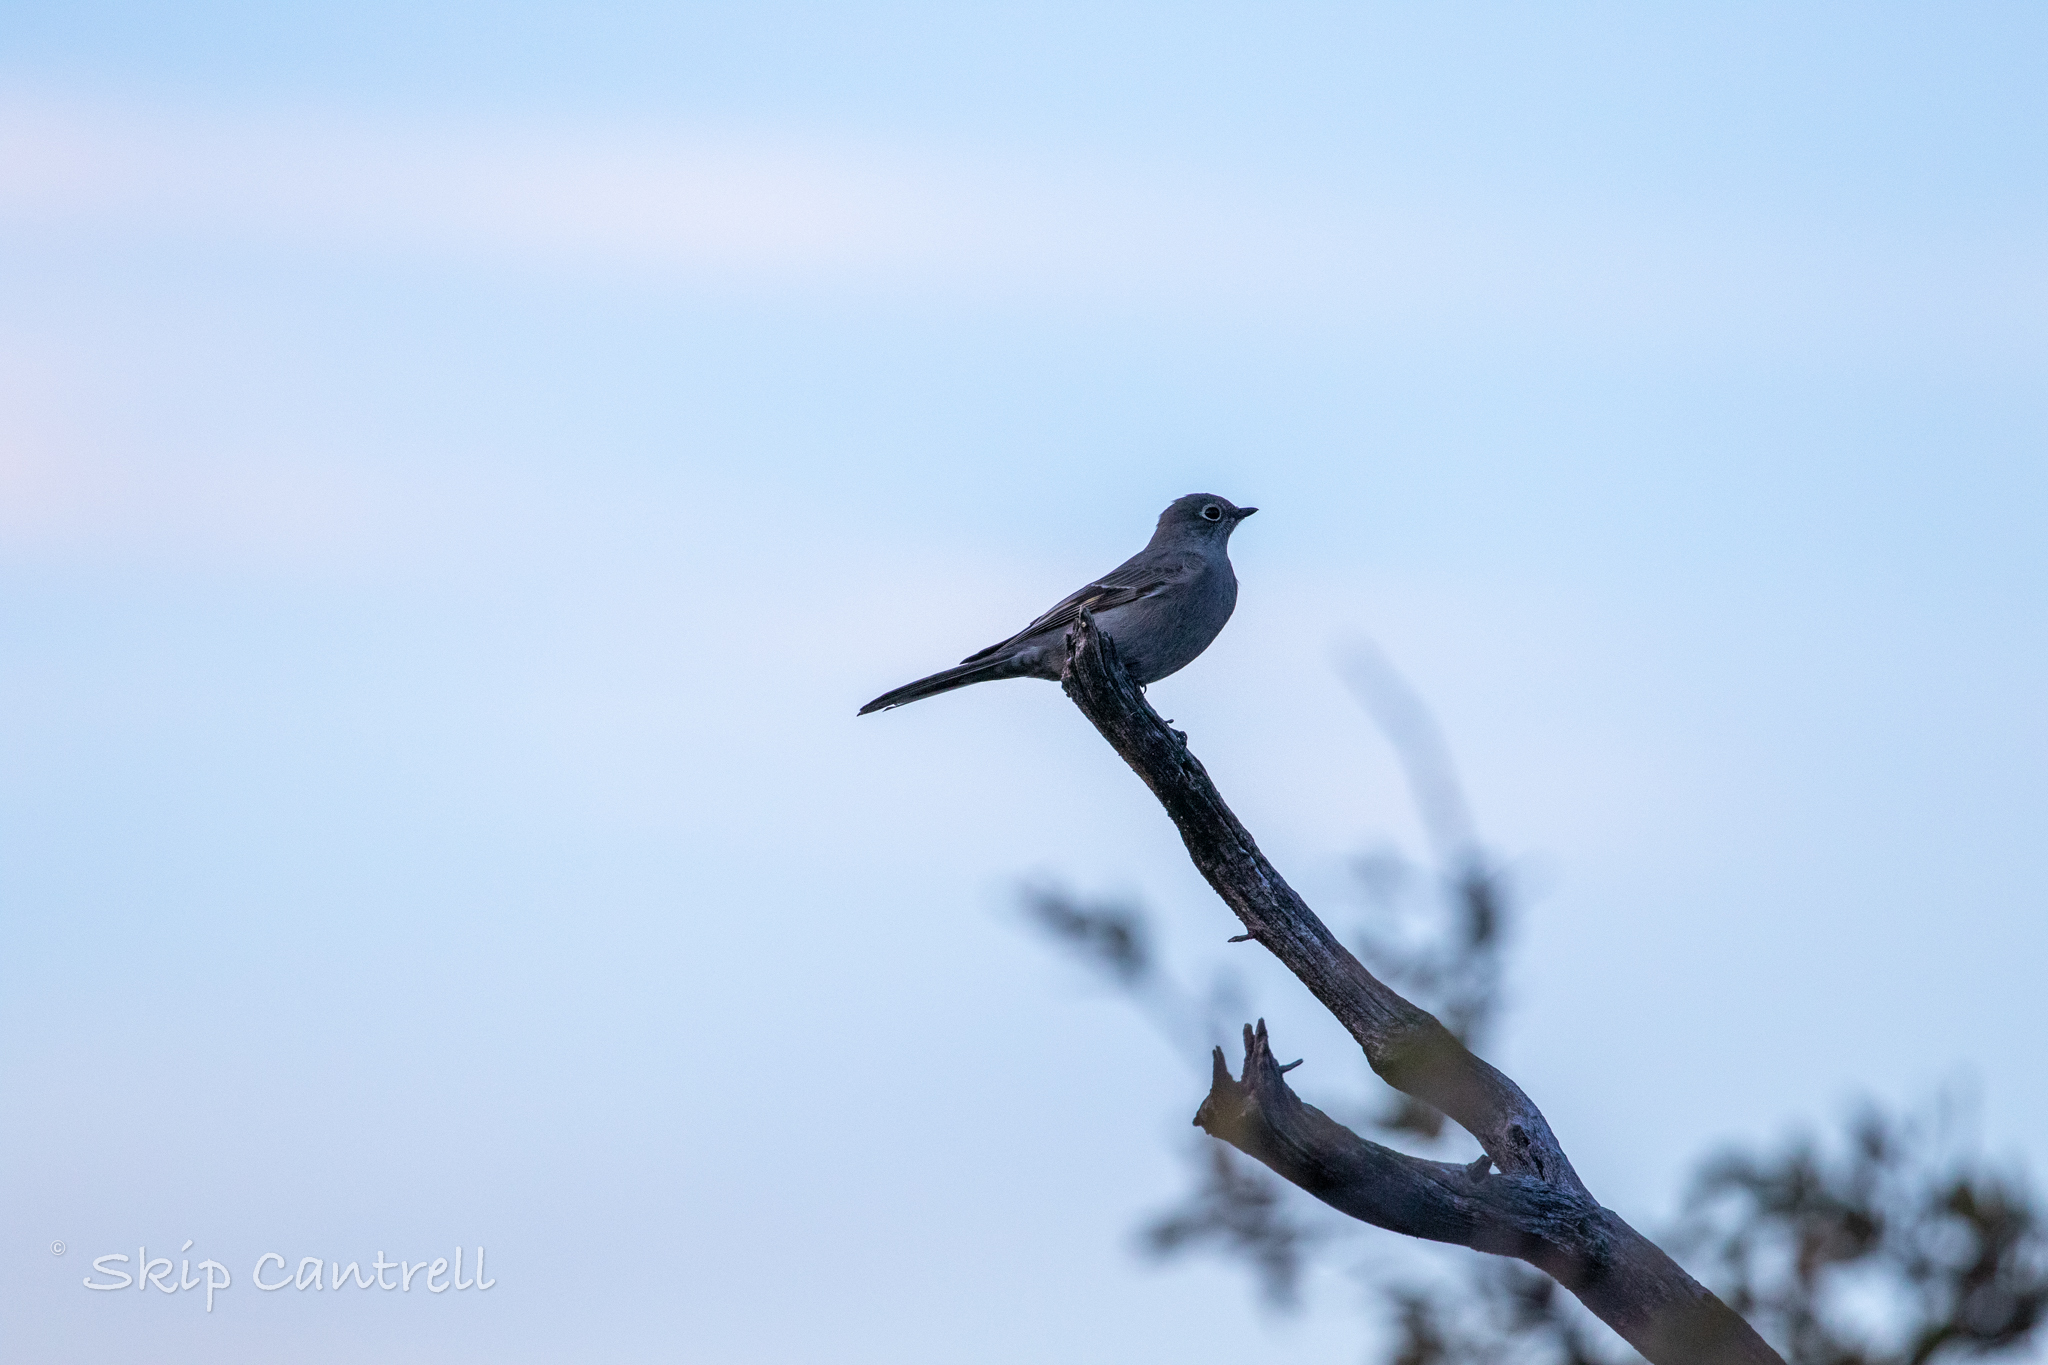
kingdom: Animalia
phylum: Chordata
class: Aves
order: Passeriformes
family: Turdidae
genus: Myadestes
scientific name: Myadestes townsendi
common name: Townsend's solitaire
